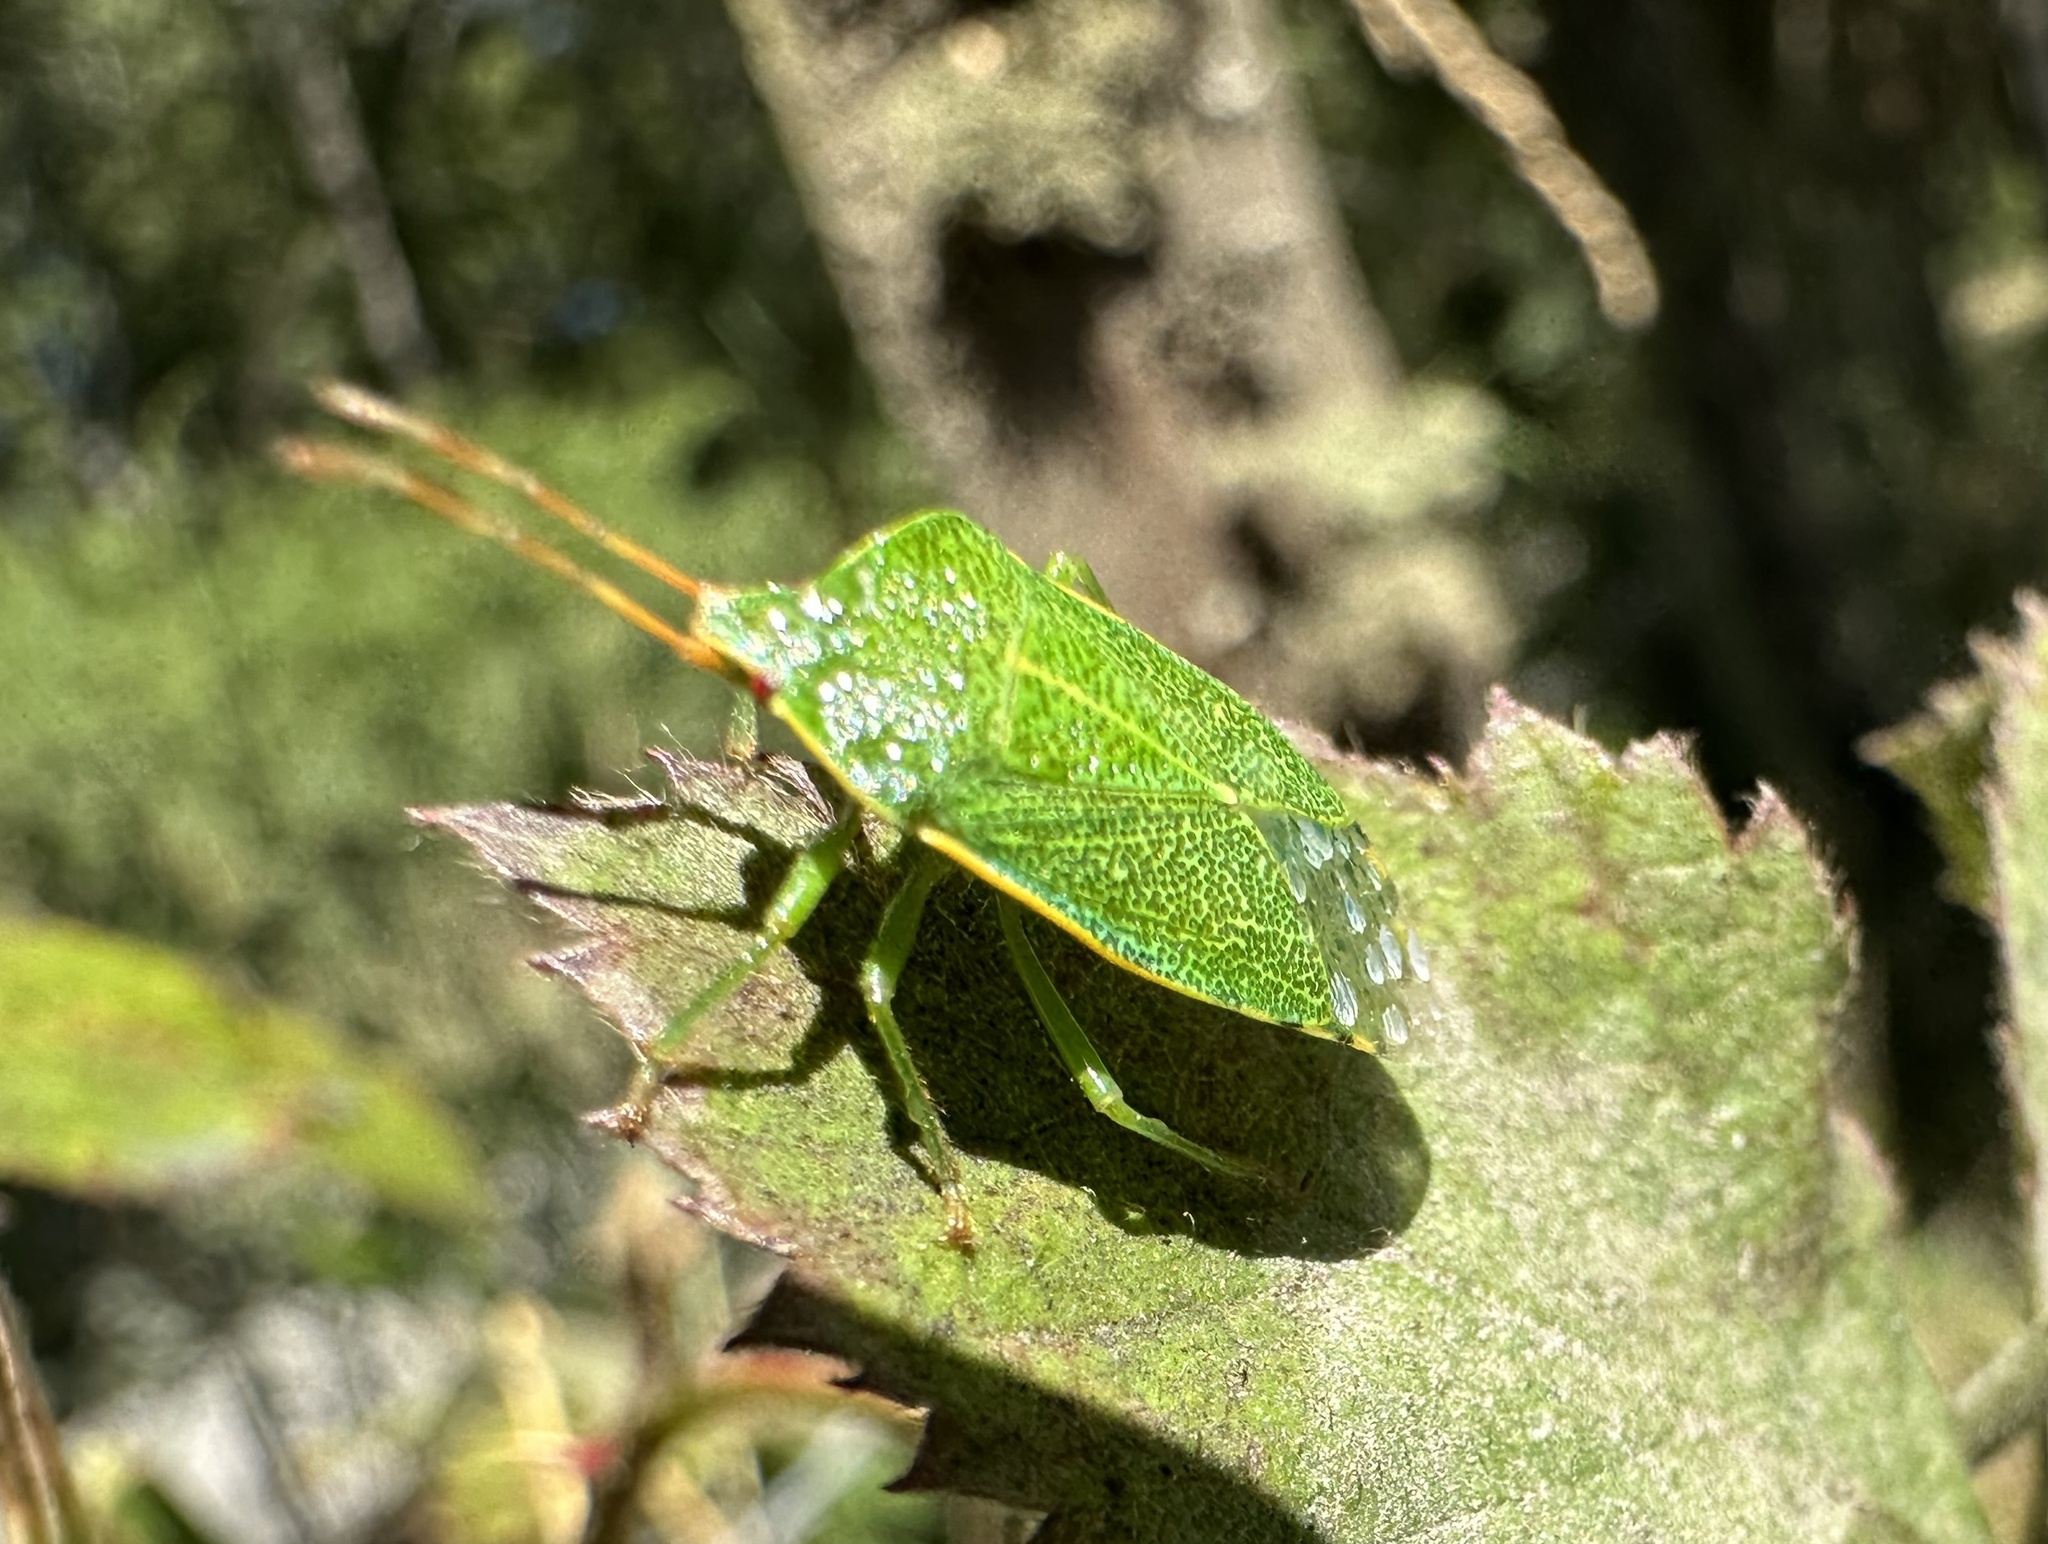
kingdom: Animalia
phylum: Arthropoda
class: Insecta
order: Hemiptera
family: Acanthosomatidae
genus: Sinopla
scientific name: Sinopla perpunctatus
